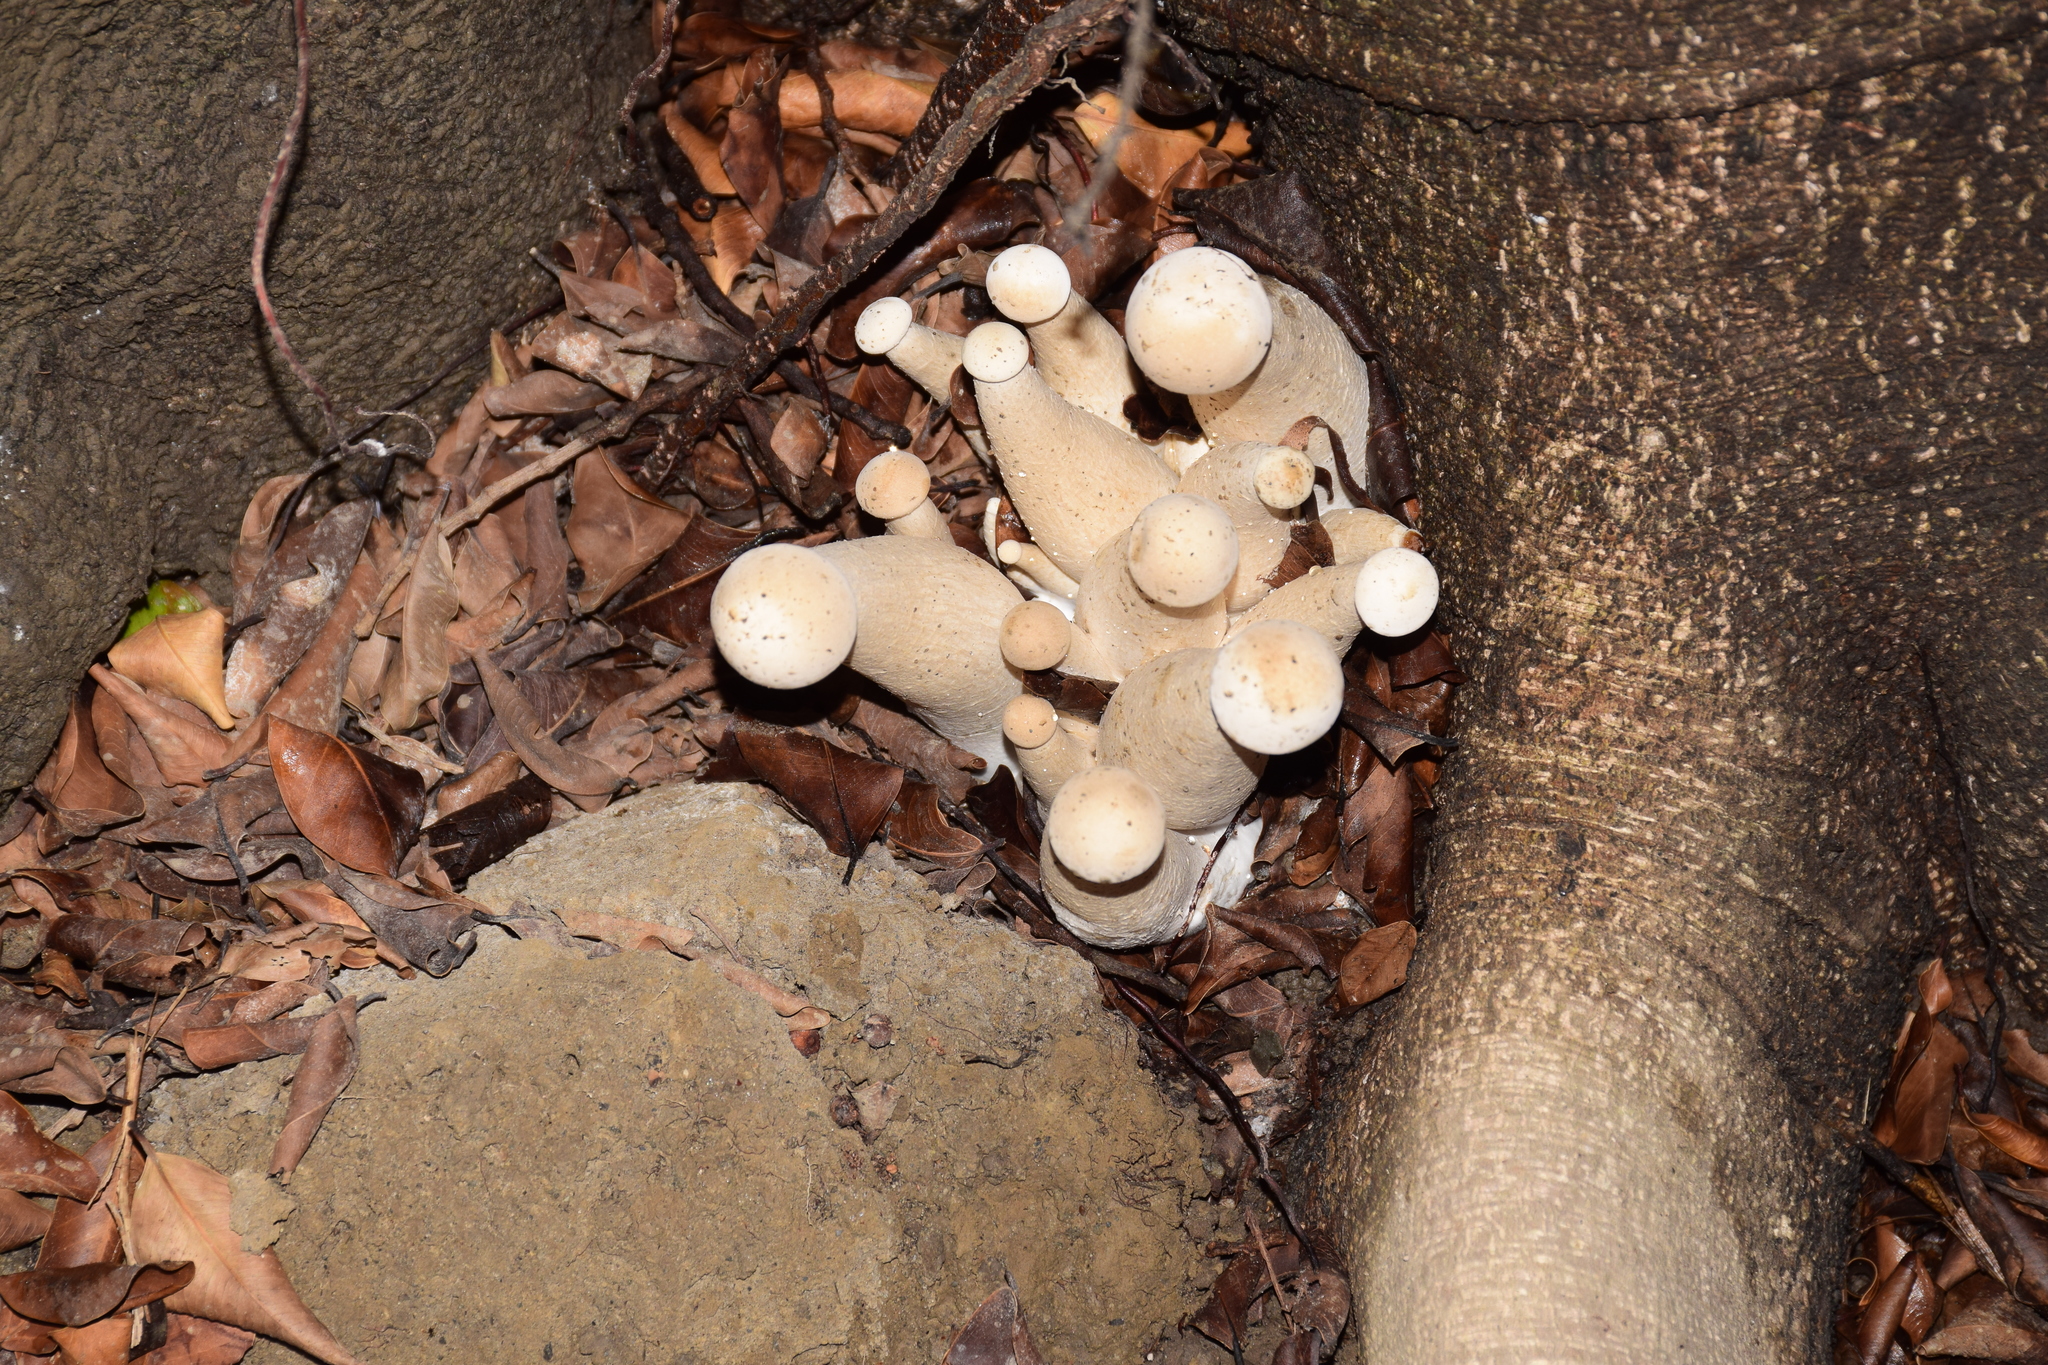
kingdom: Fungi
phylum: Basidiomycota
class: Agaricomycetes
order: Agaricales
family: Callistosporiaceae
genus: Macrocybe
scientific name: Macrocybe gigantea
